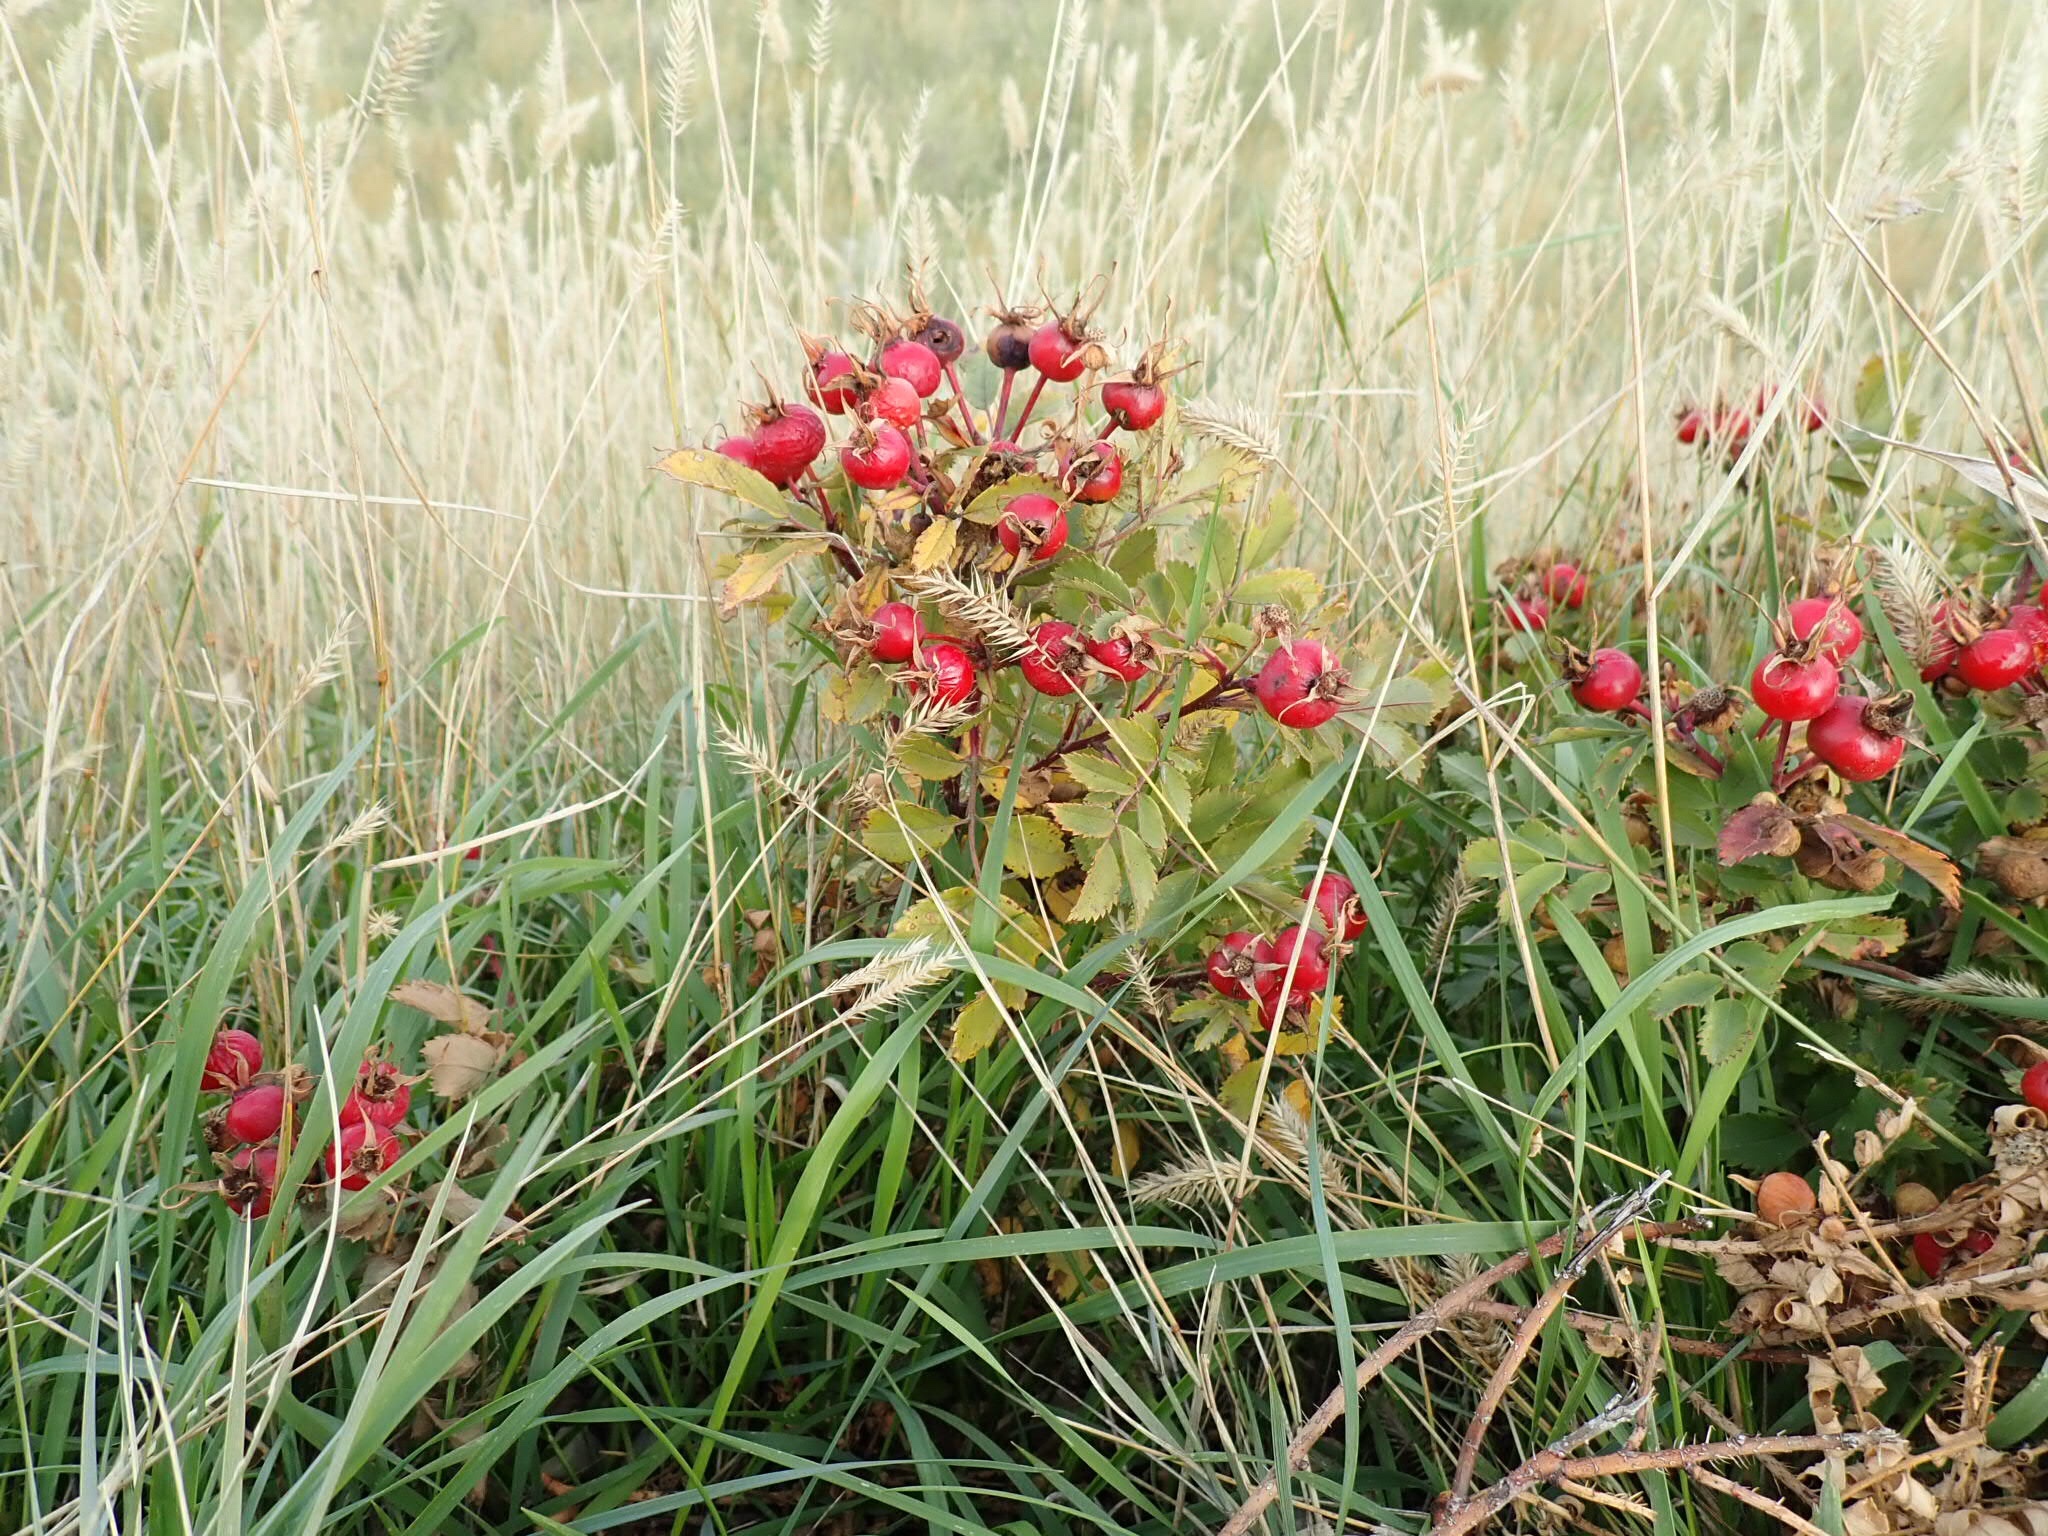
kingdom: Plantae
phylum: Tracheophyta
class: Magnoliopsida
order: Rosales
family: Rosaceae
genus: Rosa
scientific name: Rosa arkansana
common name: Prairie rose
